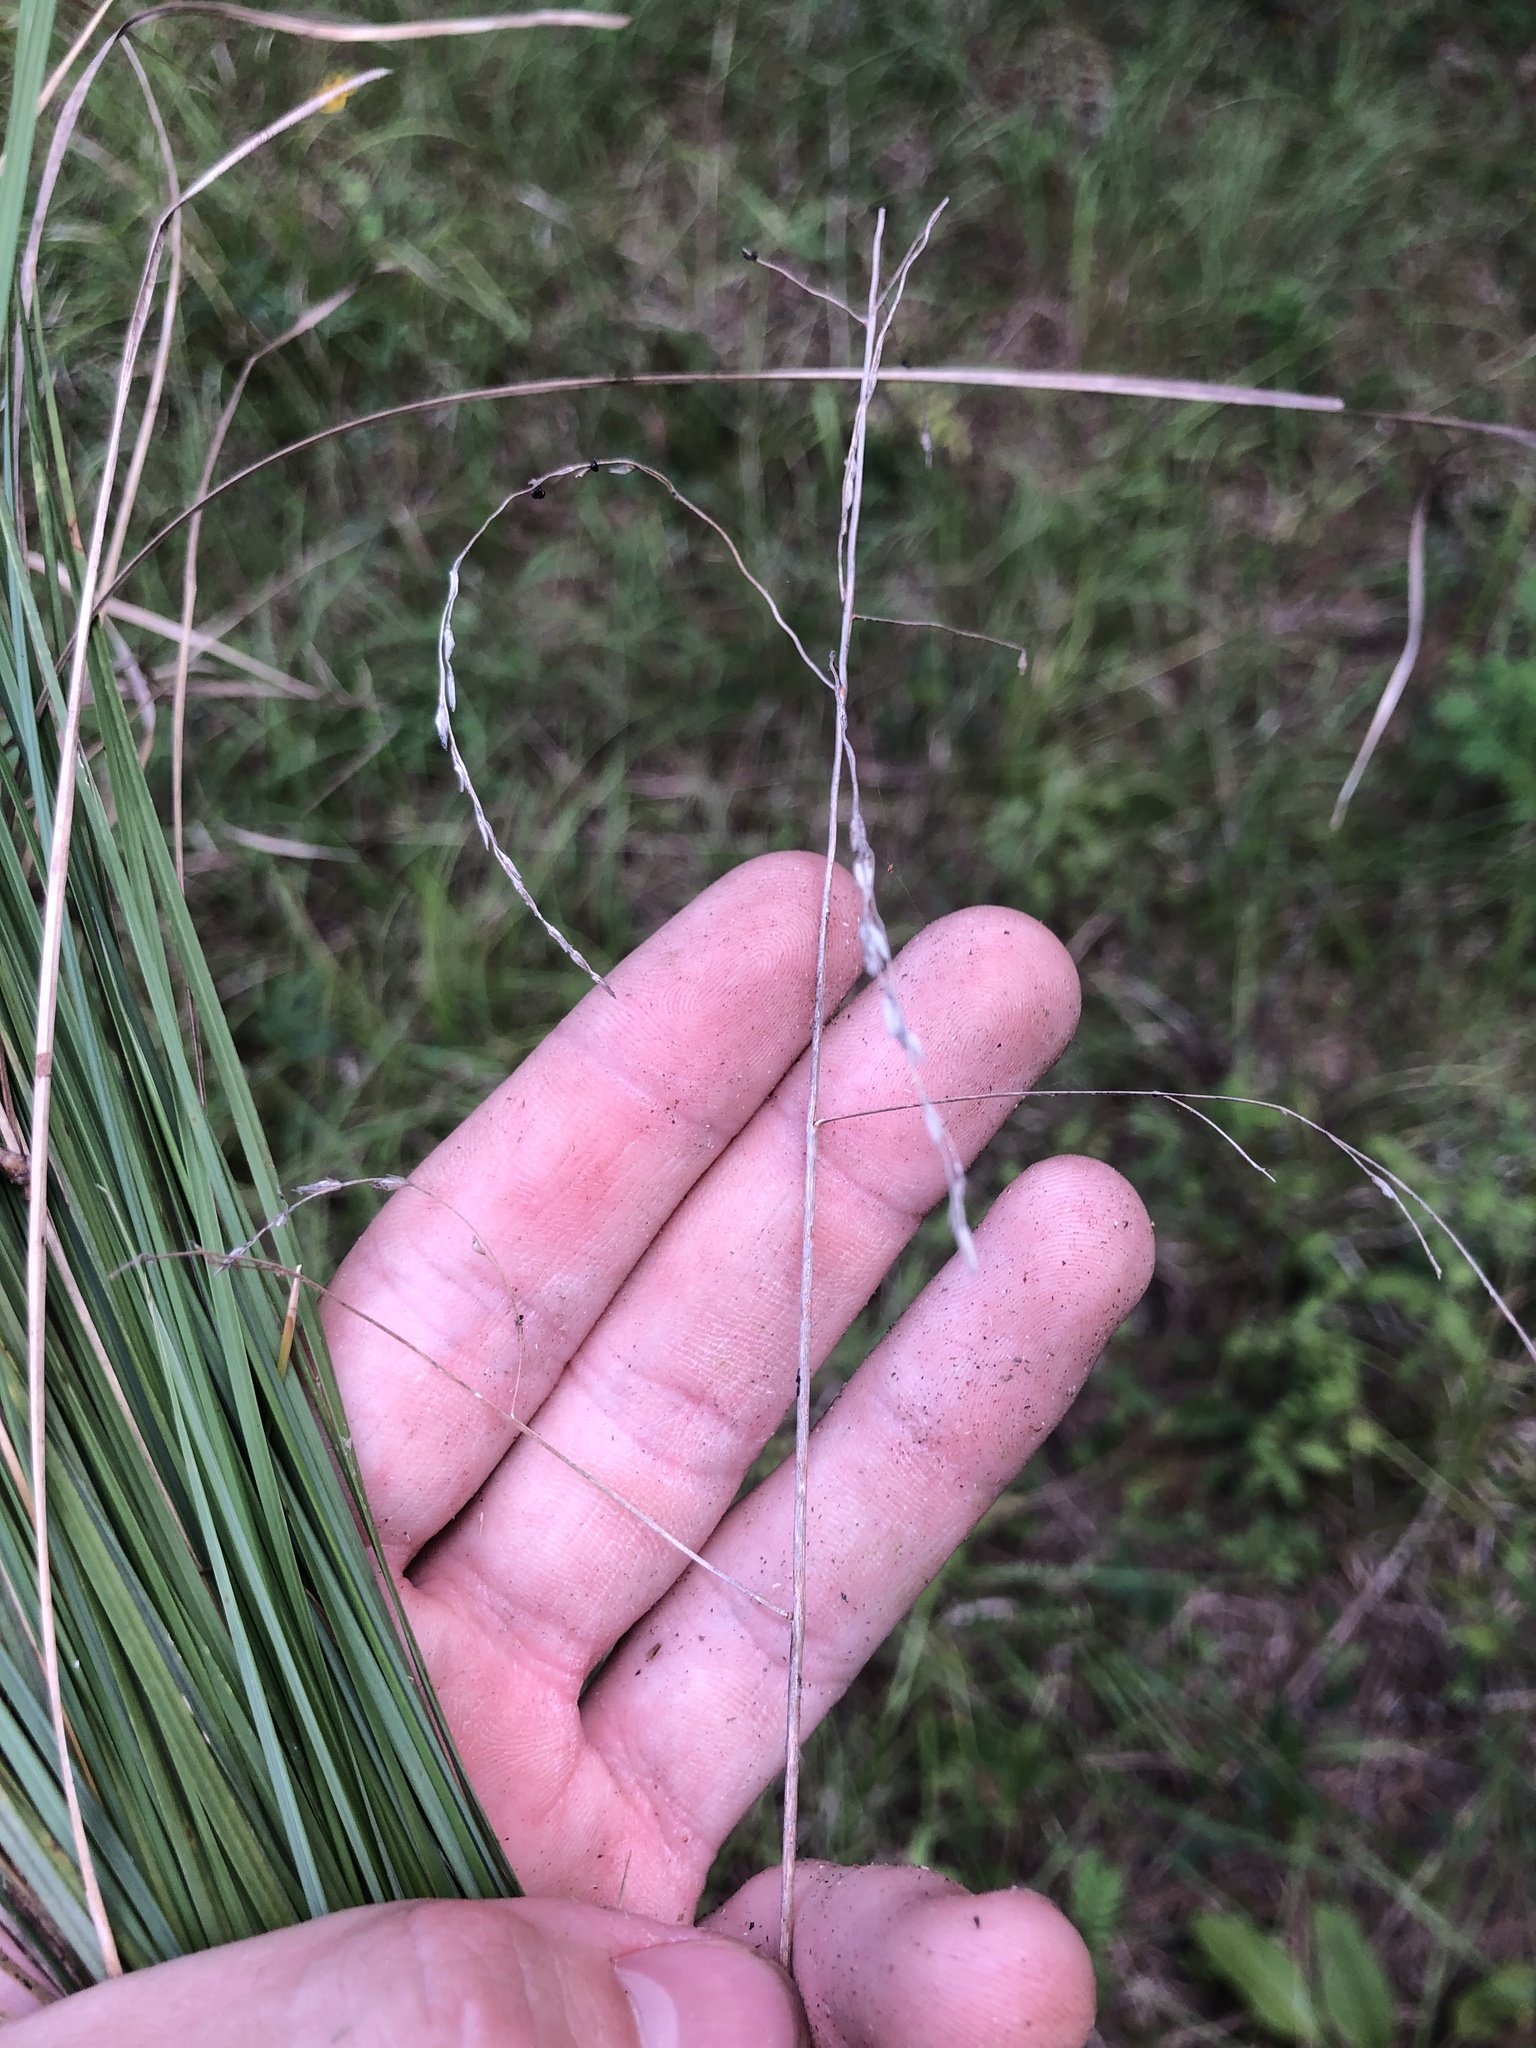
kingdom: Plantae
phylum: Tracheophyta
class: Liliopsida
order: Poales
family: Poaceae
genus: Tridens
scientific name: Tridens flavus
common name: Purpletop
